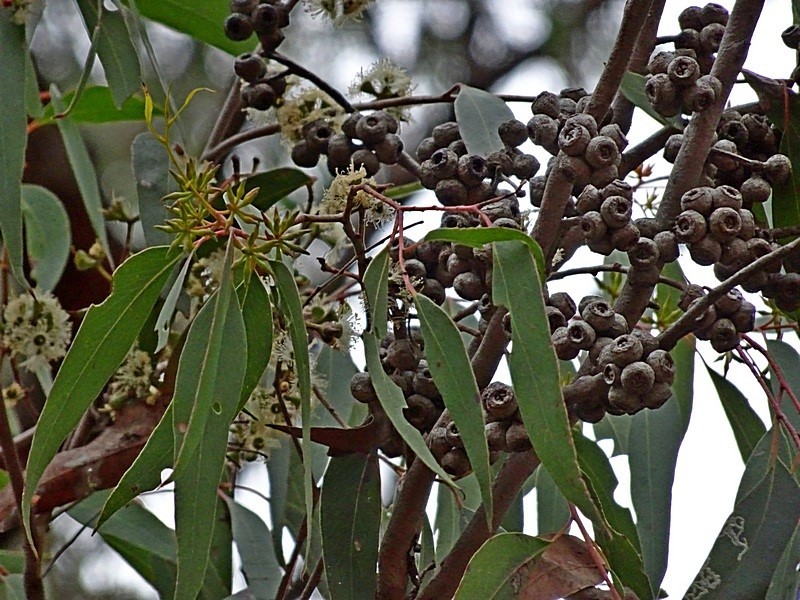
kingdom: Plantae
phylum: Tracheophyta
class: Magnoliopsida
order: Myrtales
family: Myrtaceae
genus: Eucalyptus
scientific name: Eucalyptus agglomerata
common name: Blue-leaved stringybark
